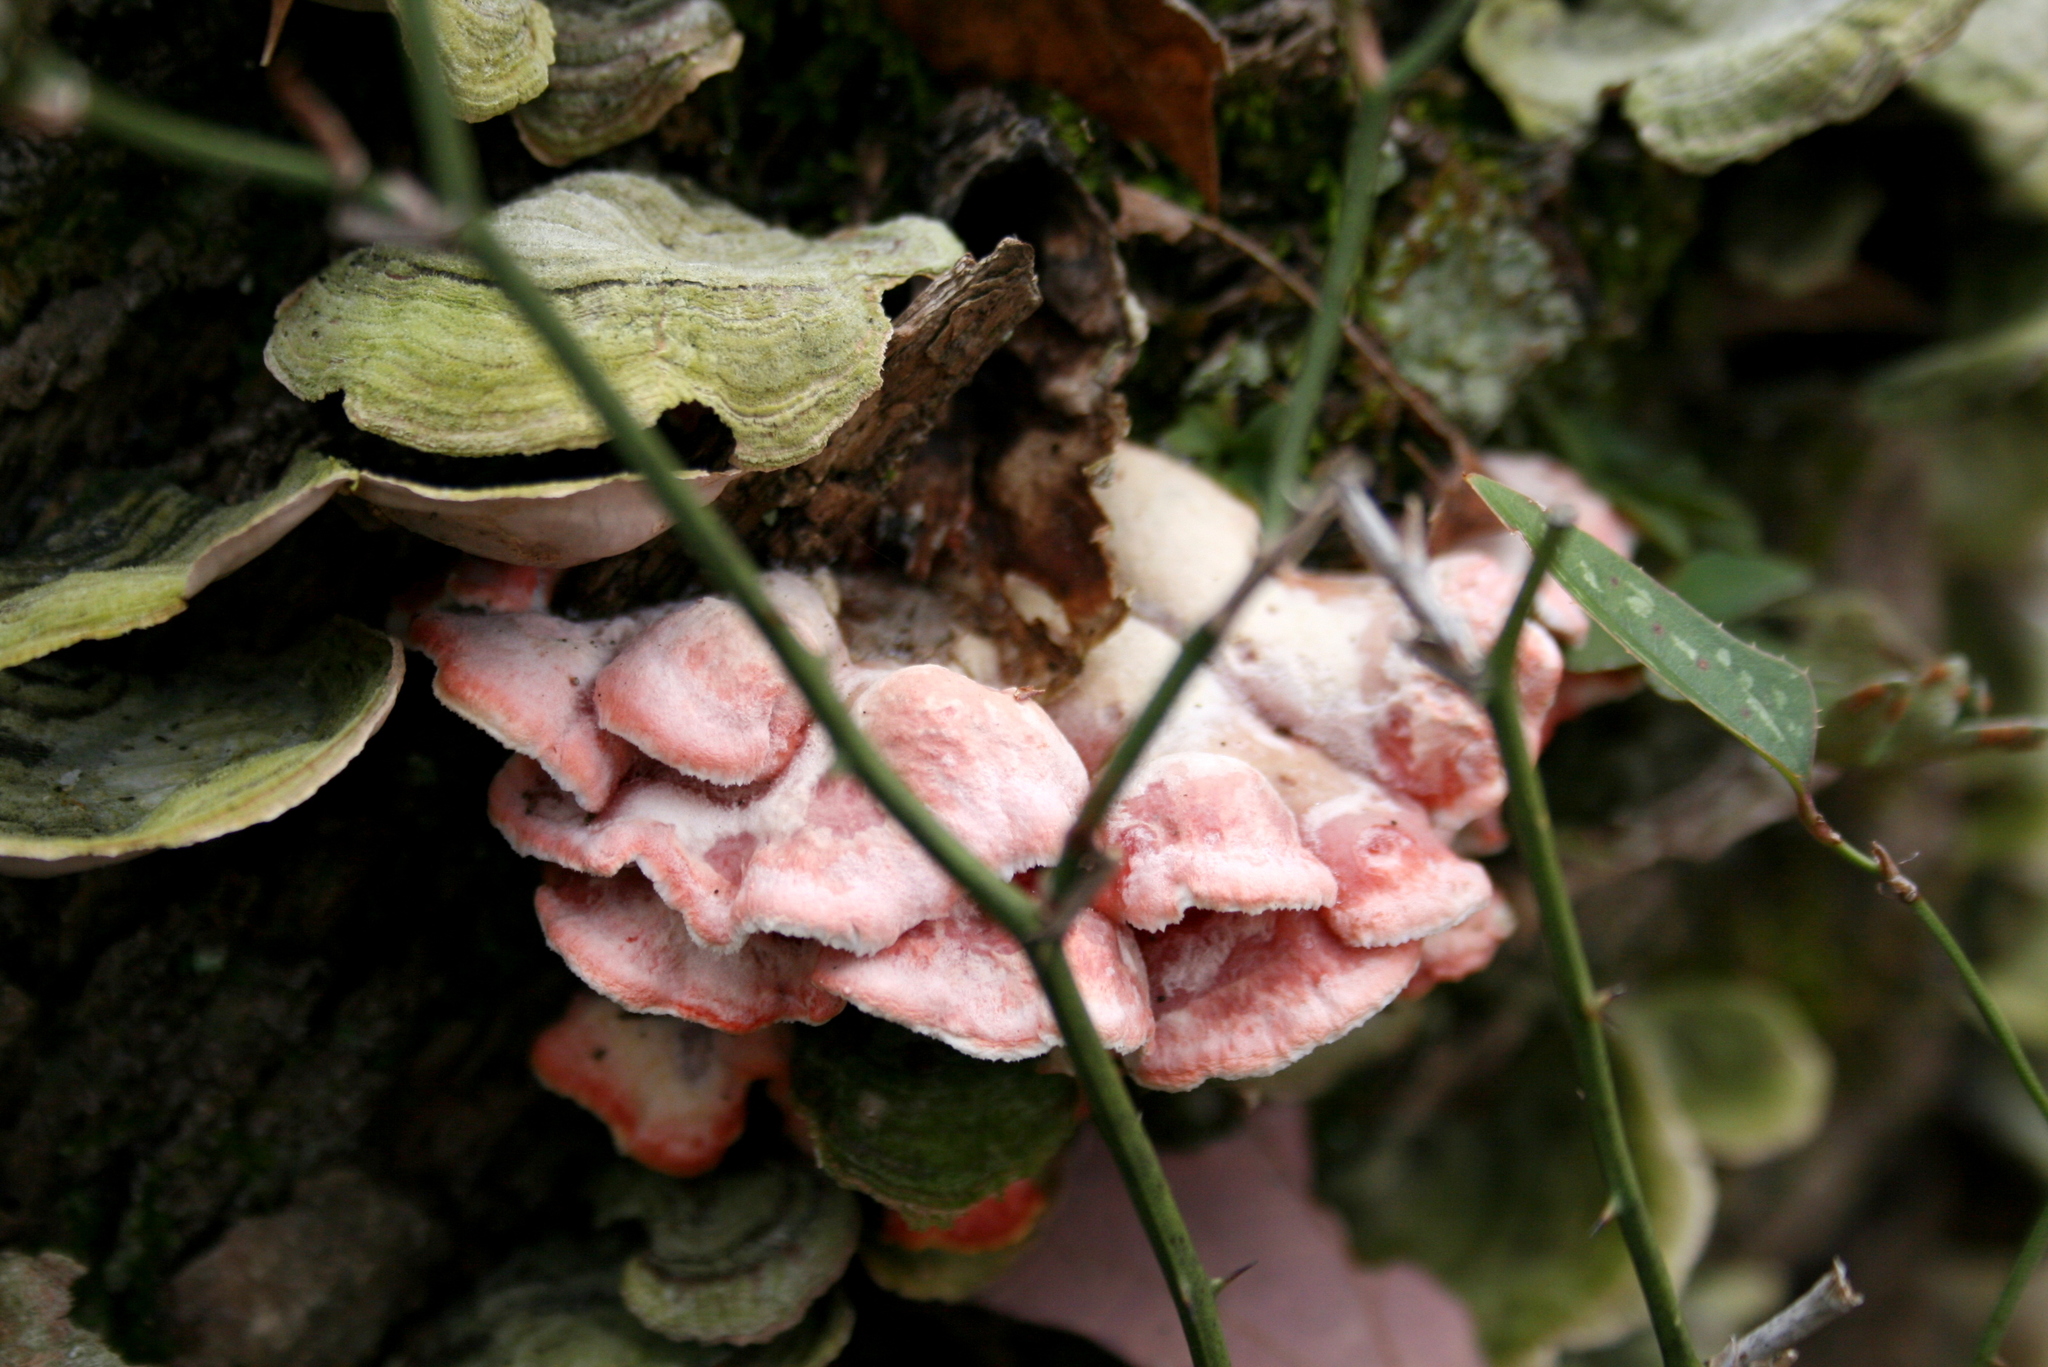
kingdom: Fungi
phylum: Basidiomycota
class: Agaricomycetes
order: Polyporales
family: Irpicaceae
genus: Byssomerulius
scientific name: Byssomerulius incarnatus
